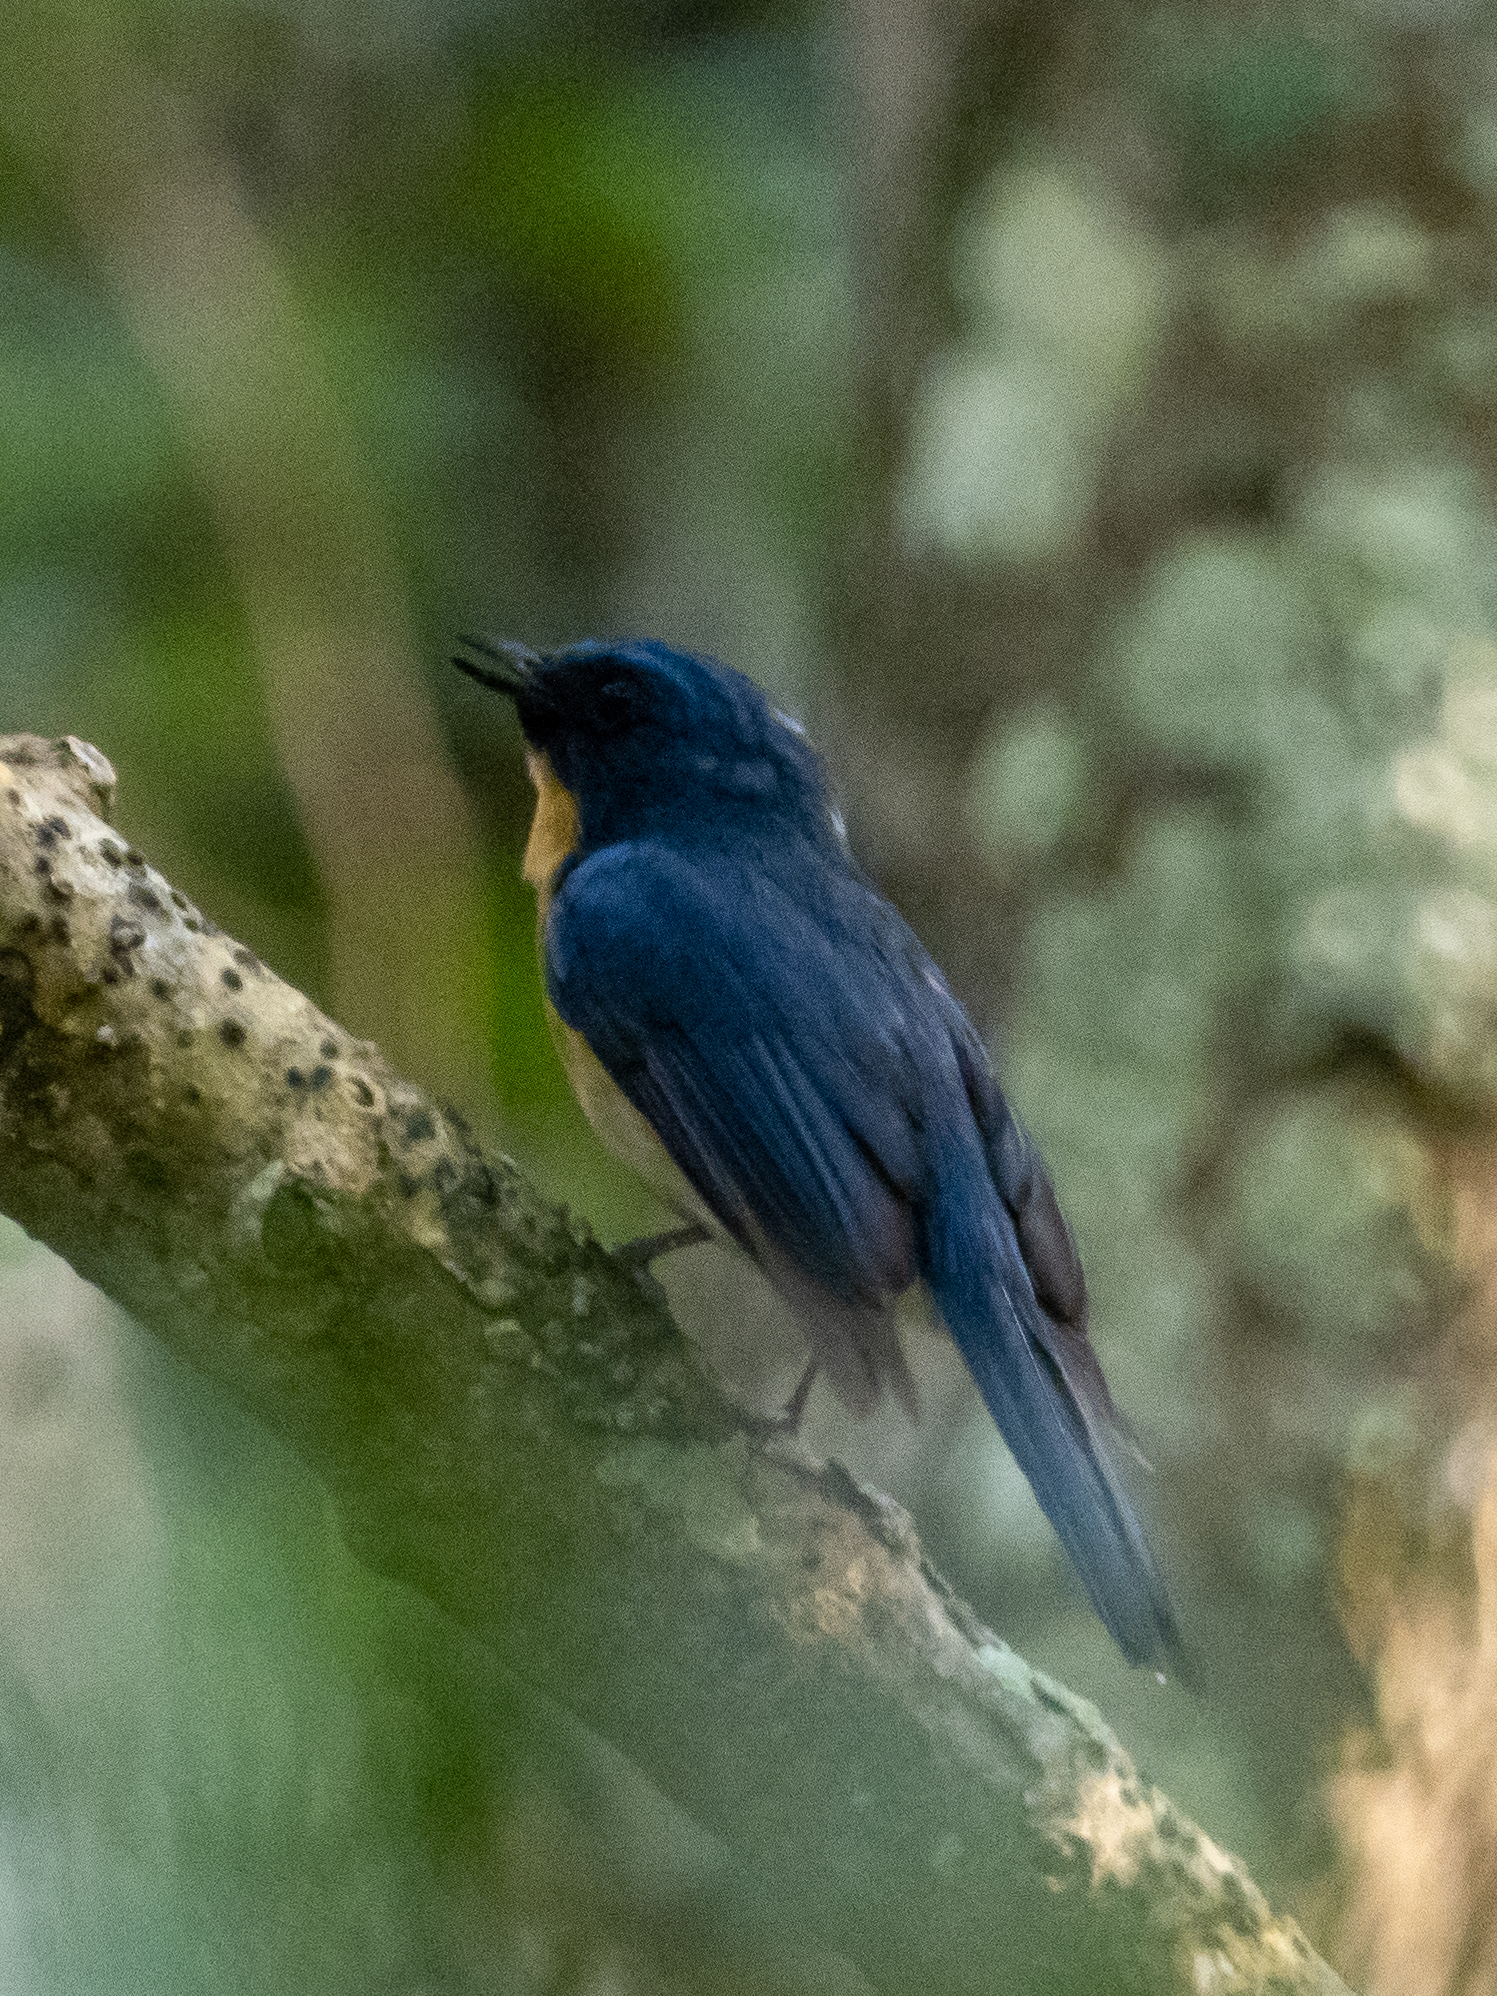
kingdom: Animalia
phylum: Chordata
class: Aves
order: Passeriformes
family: Muscicapidae
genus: Cyornis
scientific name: Cyornis tickelliae
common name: Tickell's blue flycatcher
